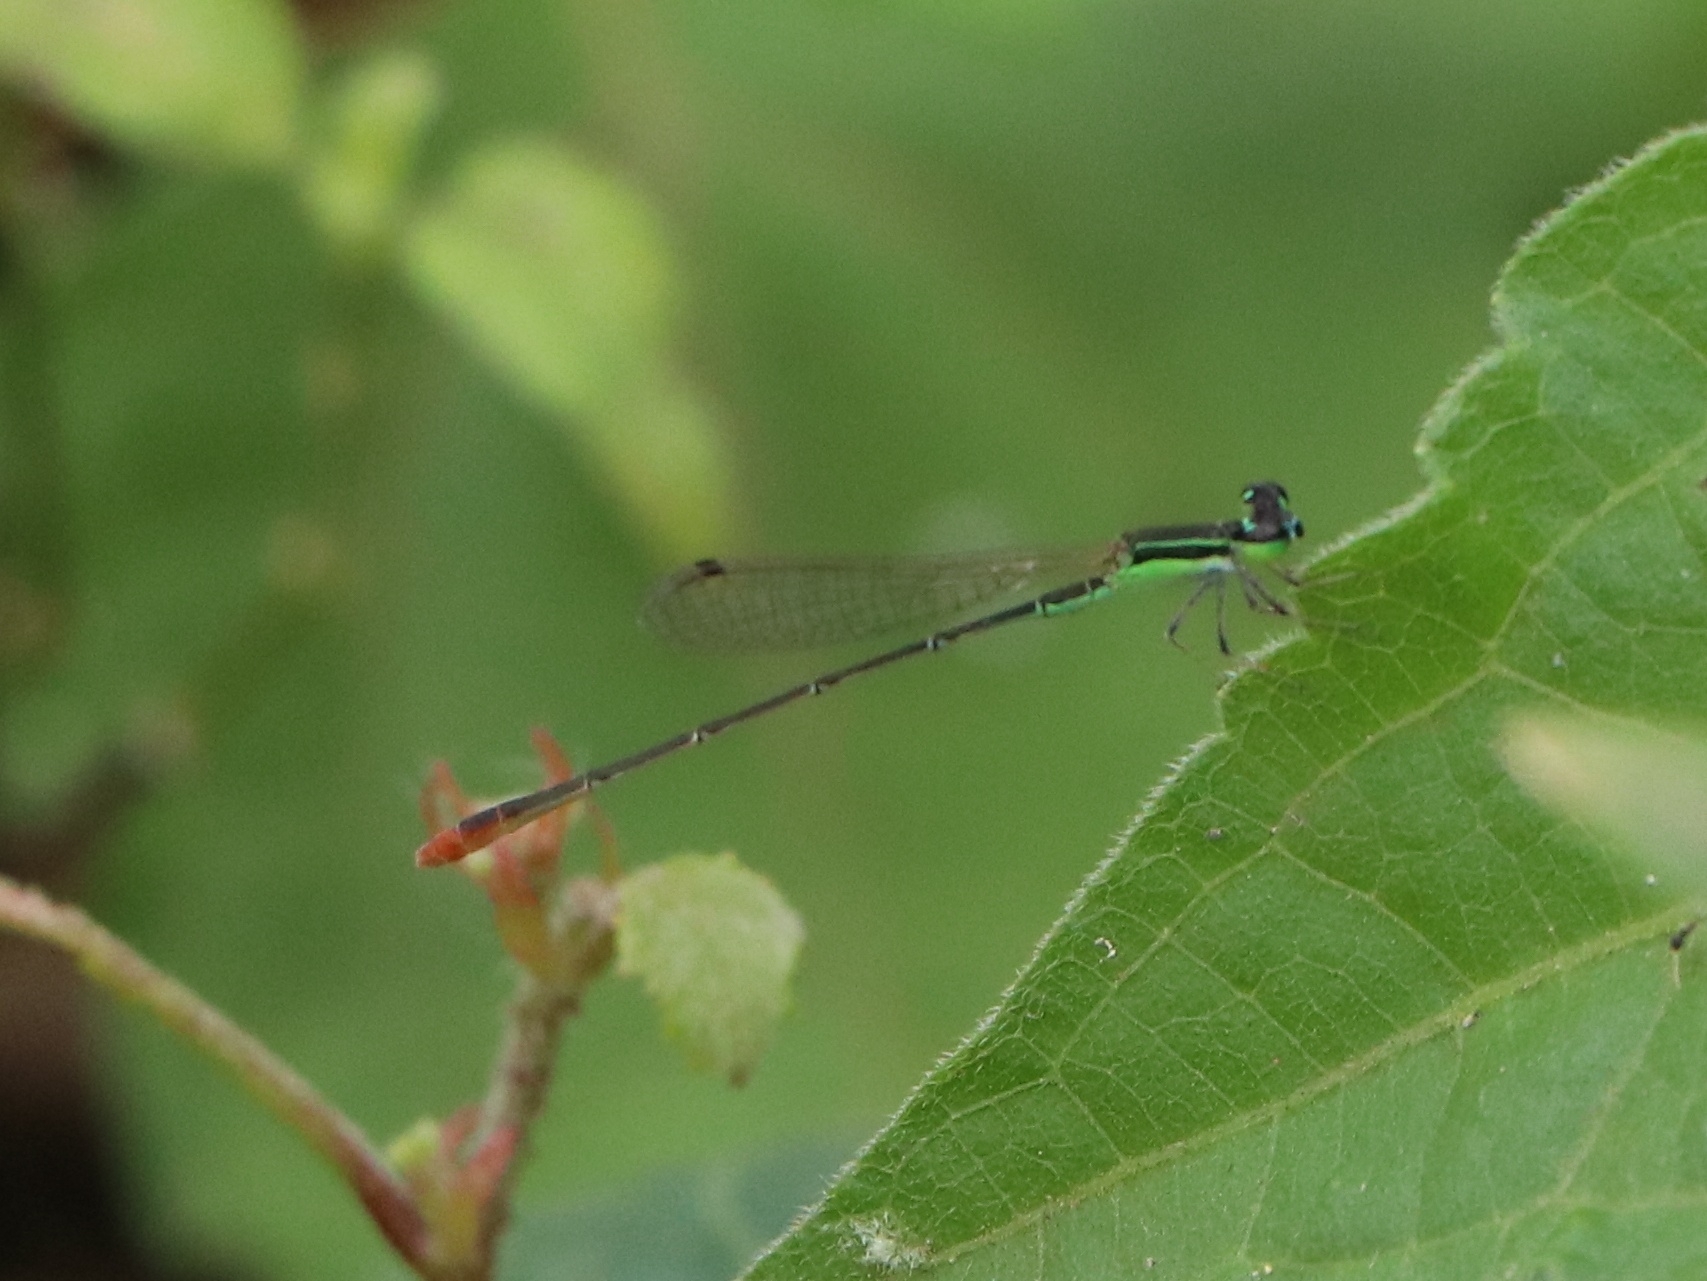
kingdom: Animalia
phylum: Arthropoda
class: Insecta
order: Odonata
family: Coenagrionidae
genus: Agriocnemis
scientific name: Agriocnemis pygmaea
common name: Pygmy wisp
